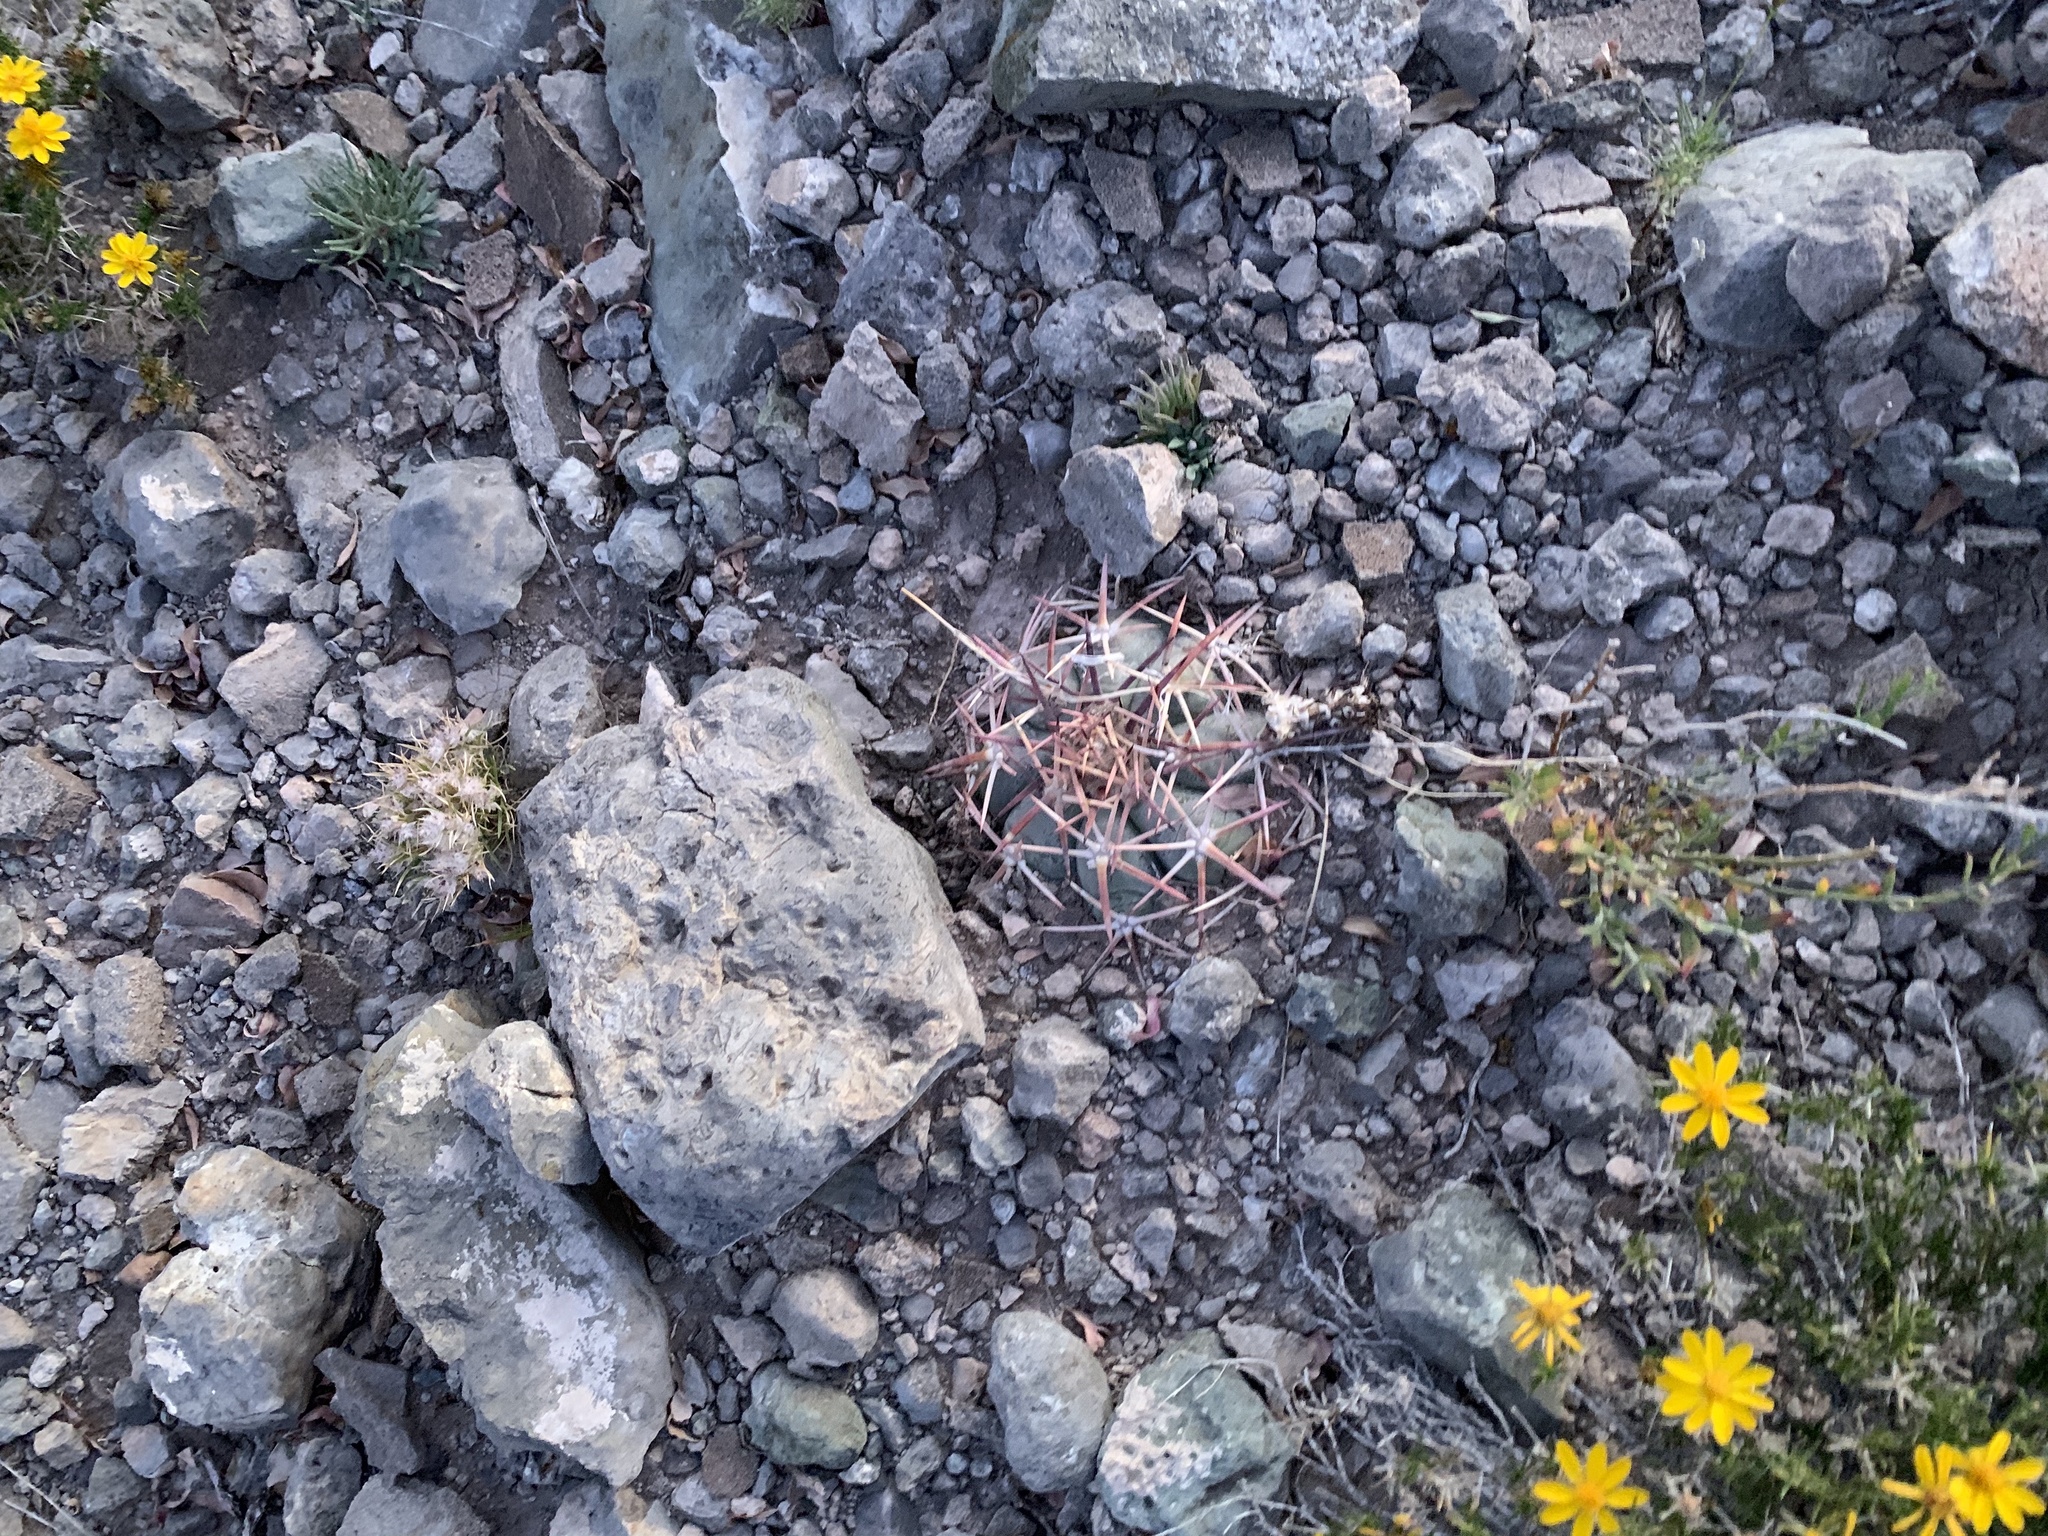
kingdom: Plantae
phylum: Tracheophyta
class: Magnoliopsida
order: Caryophyllales
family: Cactaceae
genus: Echinocactus
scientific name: Echinocactus horizonthalonius
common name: Devilshead
